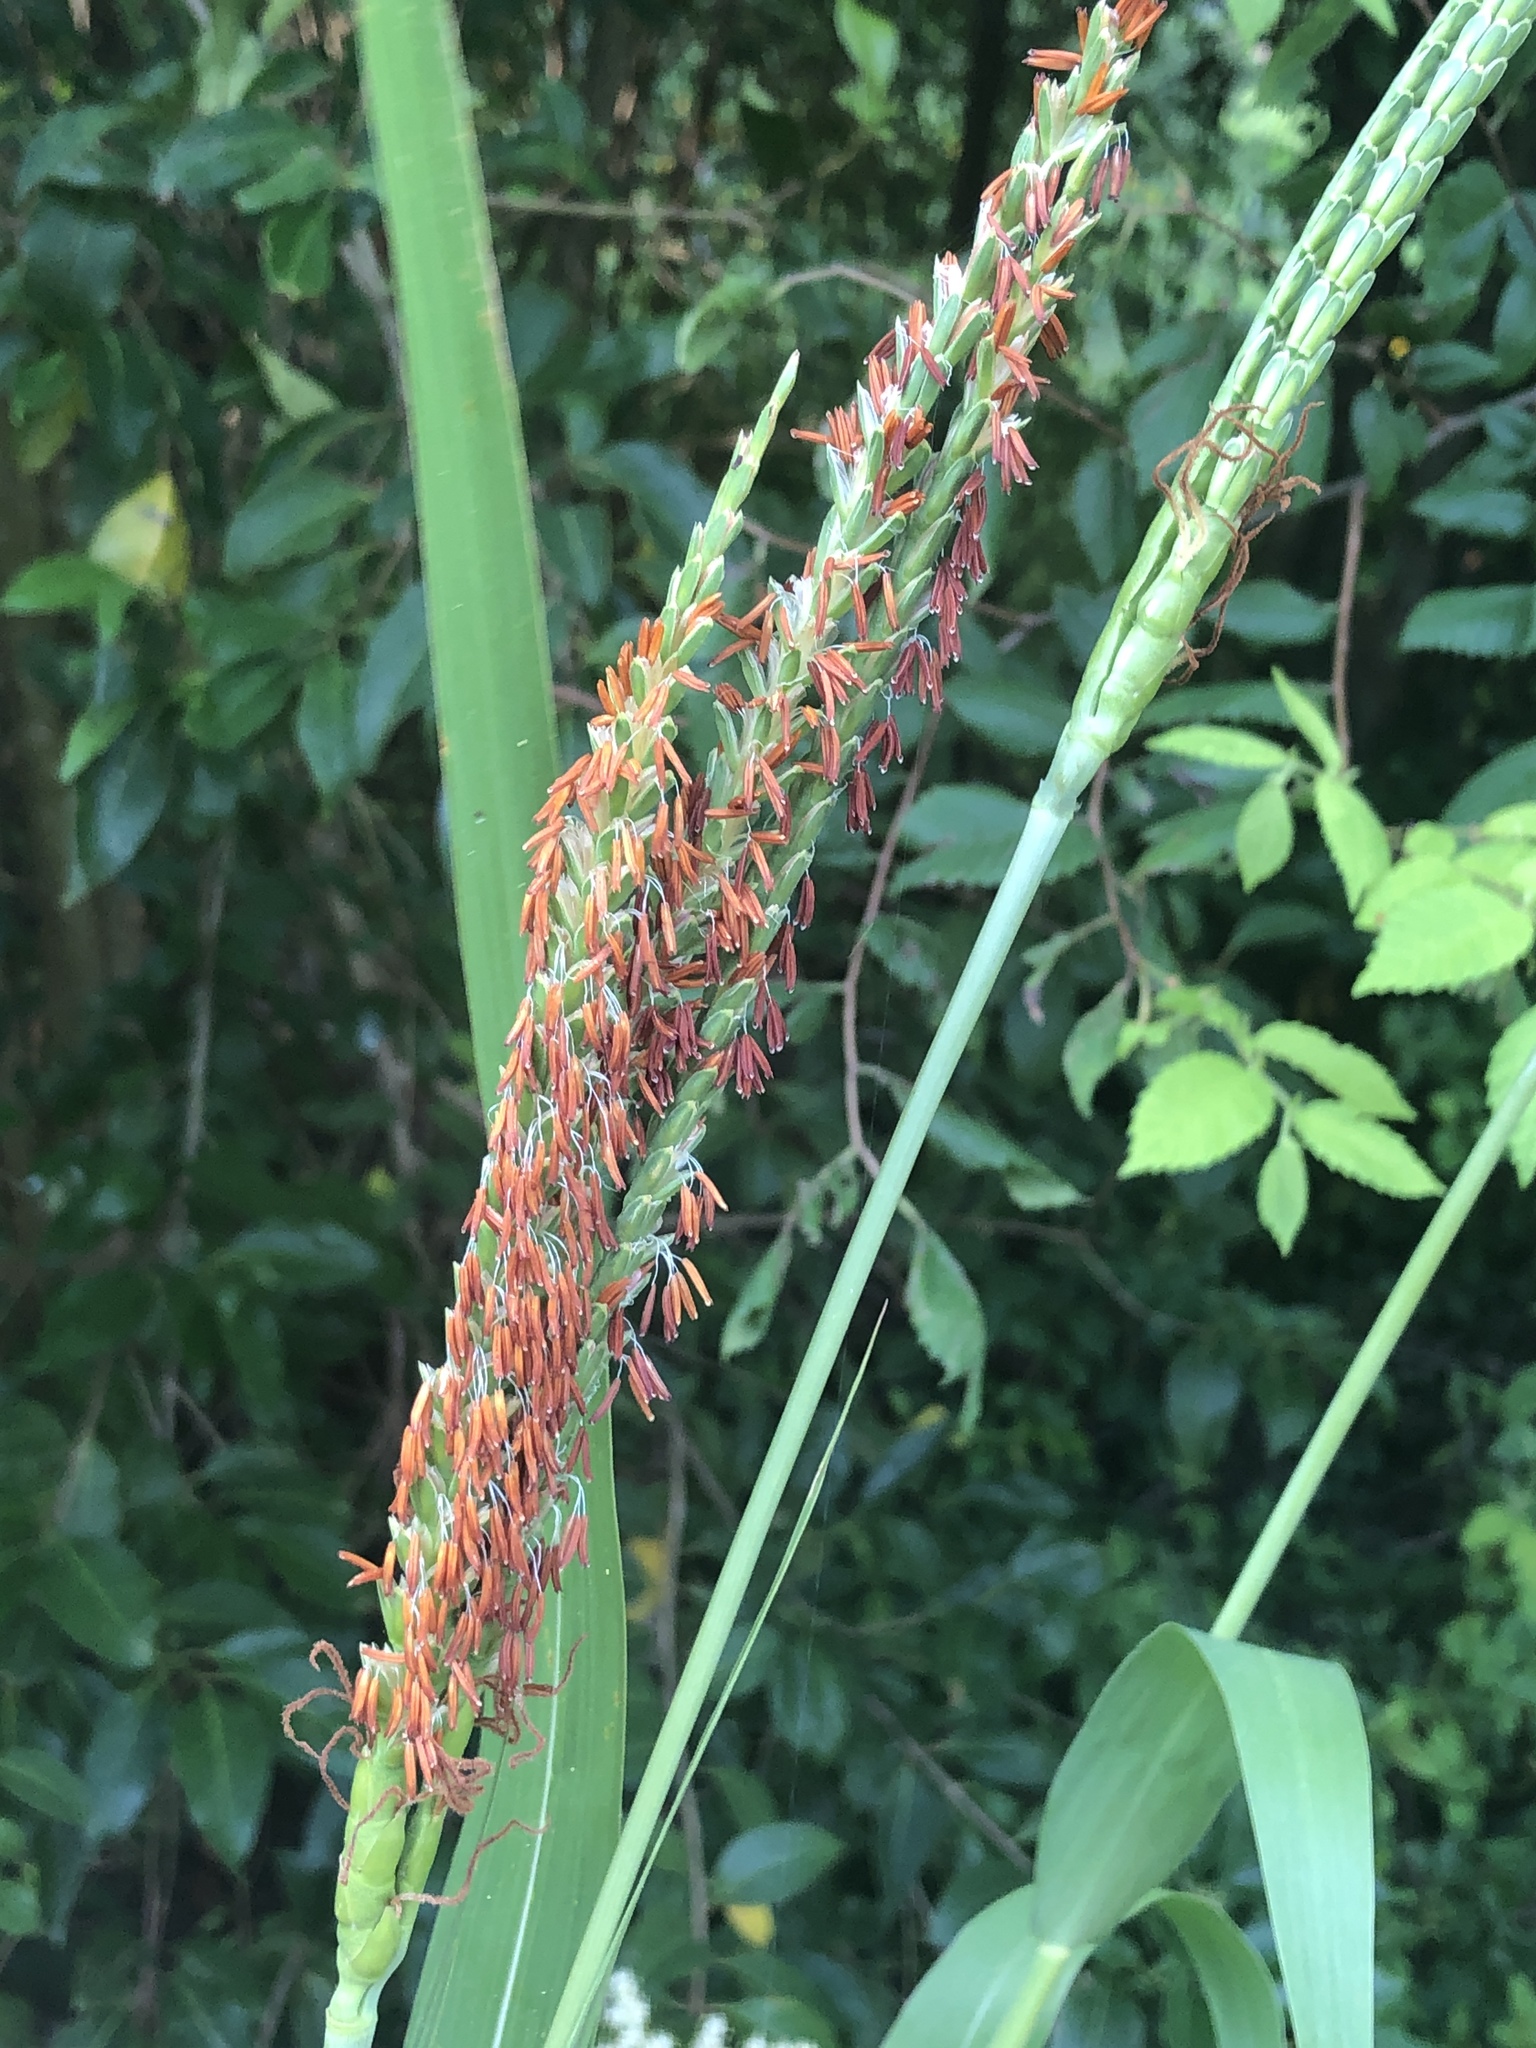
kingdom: Plantae
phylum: Tracheophyta
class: Liliopsida
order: Poales
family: Poaceae
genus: Tripsacum
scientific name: Tripsacum dactyloides
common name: Buffalo-grass
